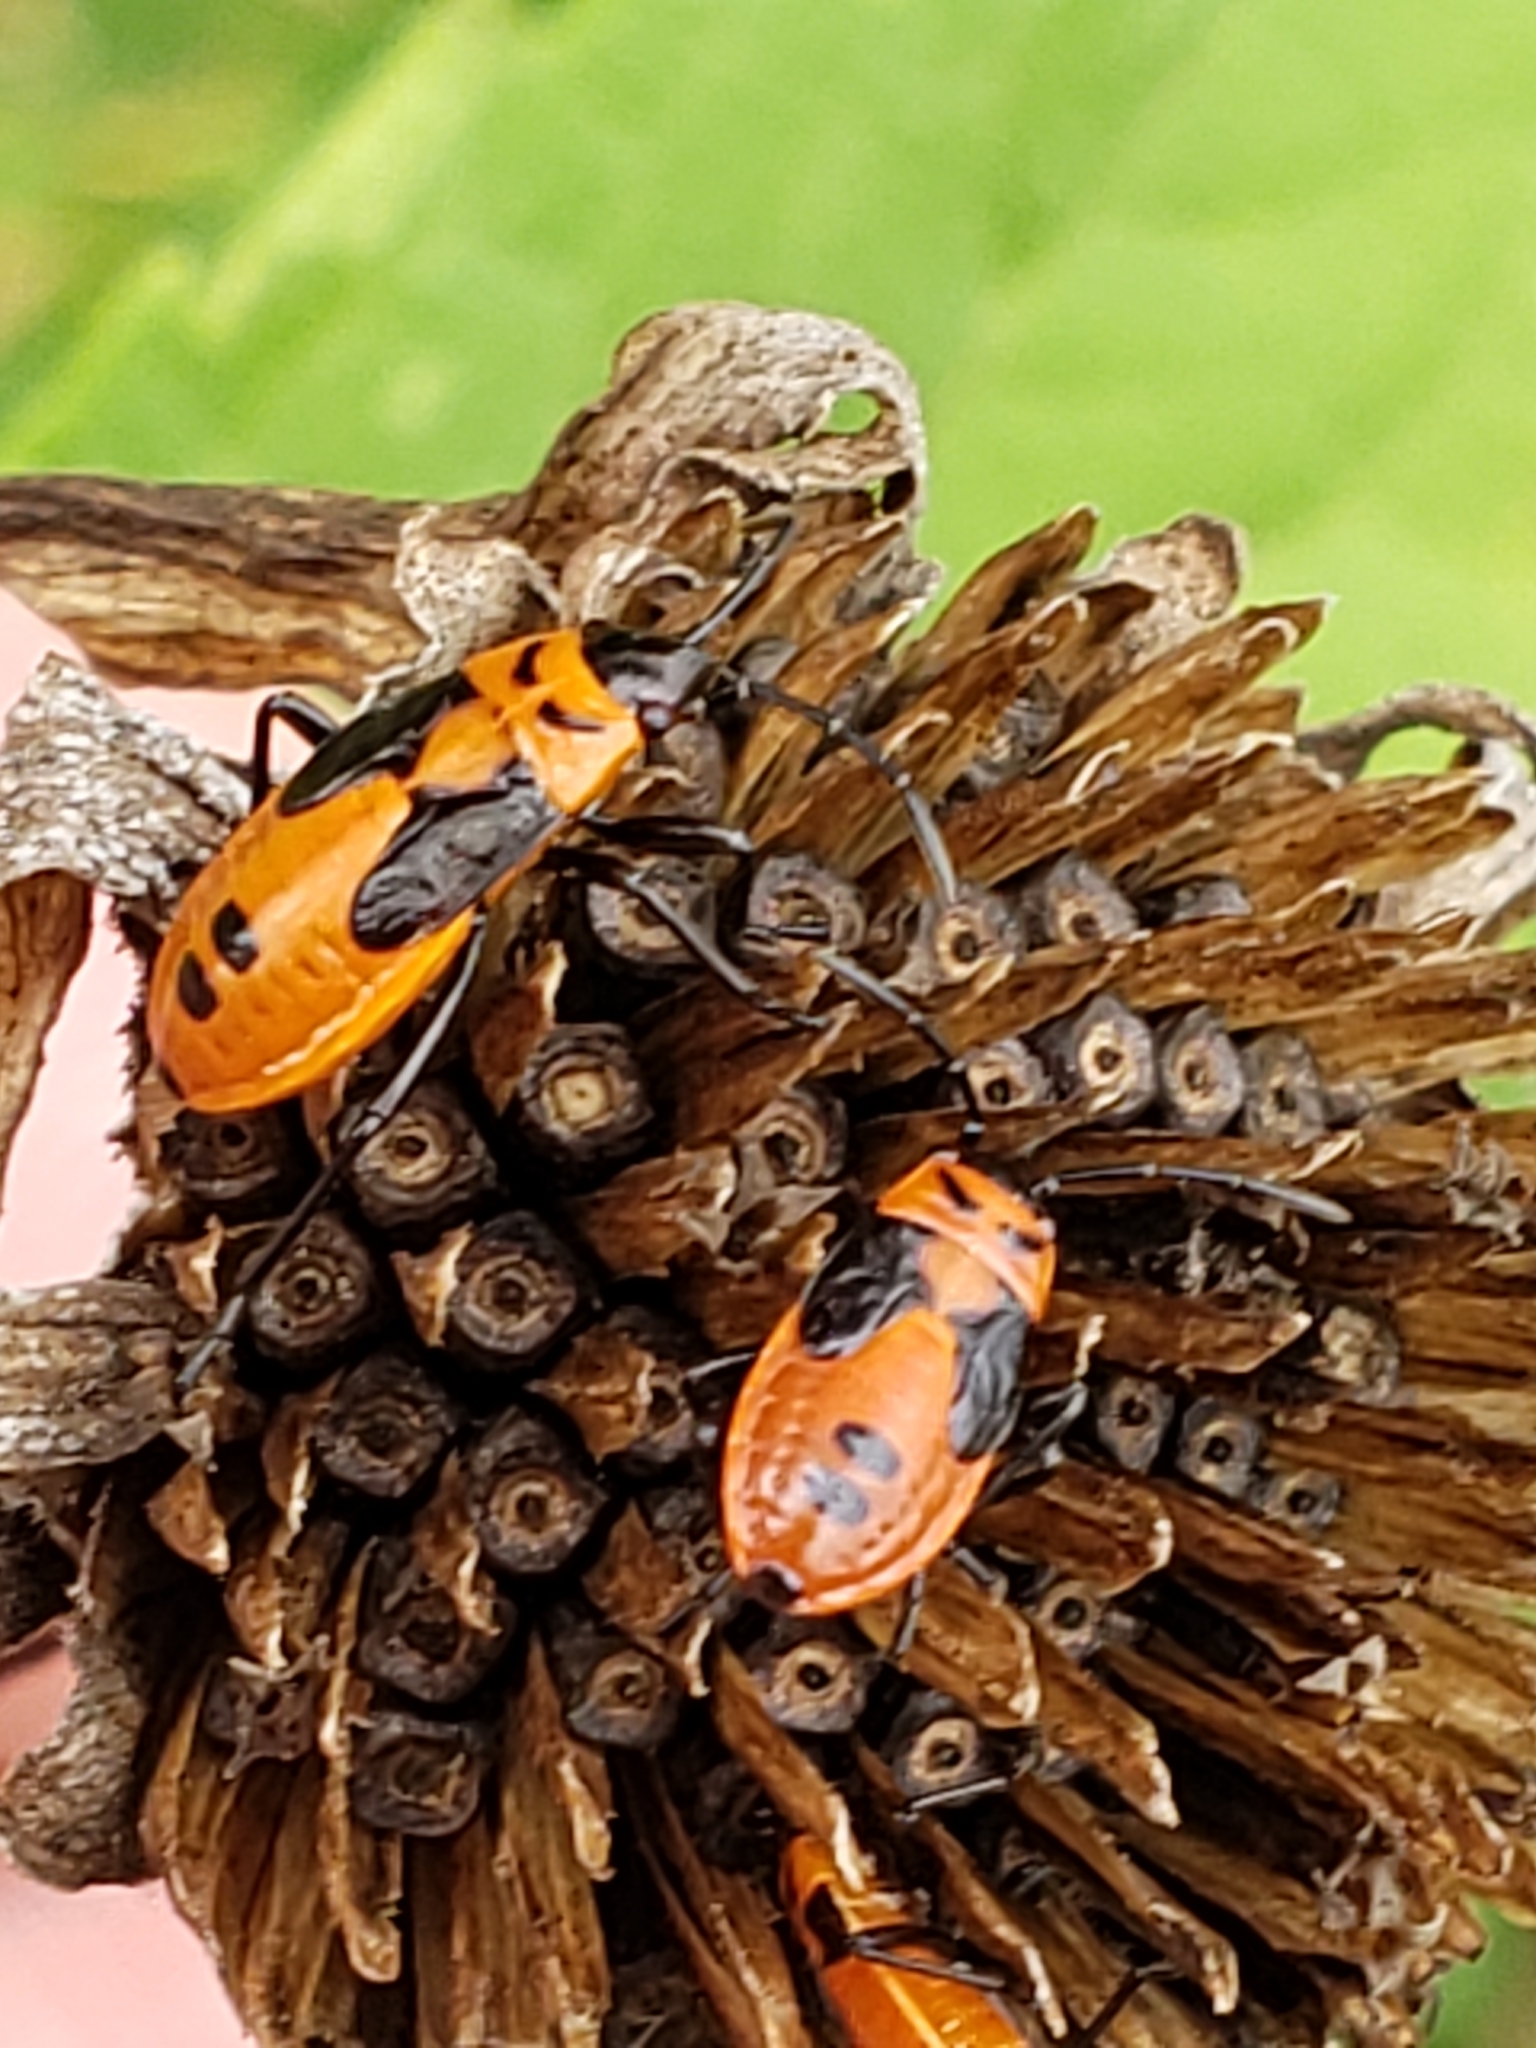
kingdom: Animalia
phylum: Arthropoda
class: Insecta
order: Hemiptera
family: Lygaeidae
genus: Lygaeus
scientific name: Lygaeus turcicus
